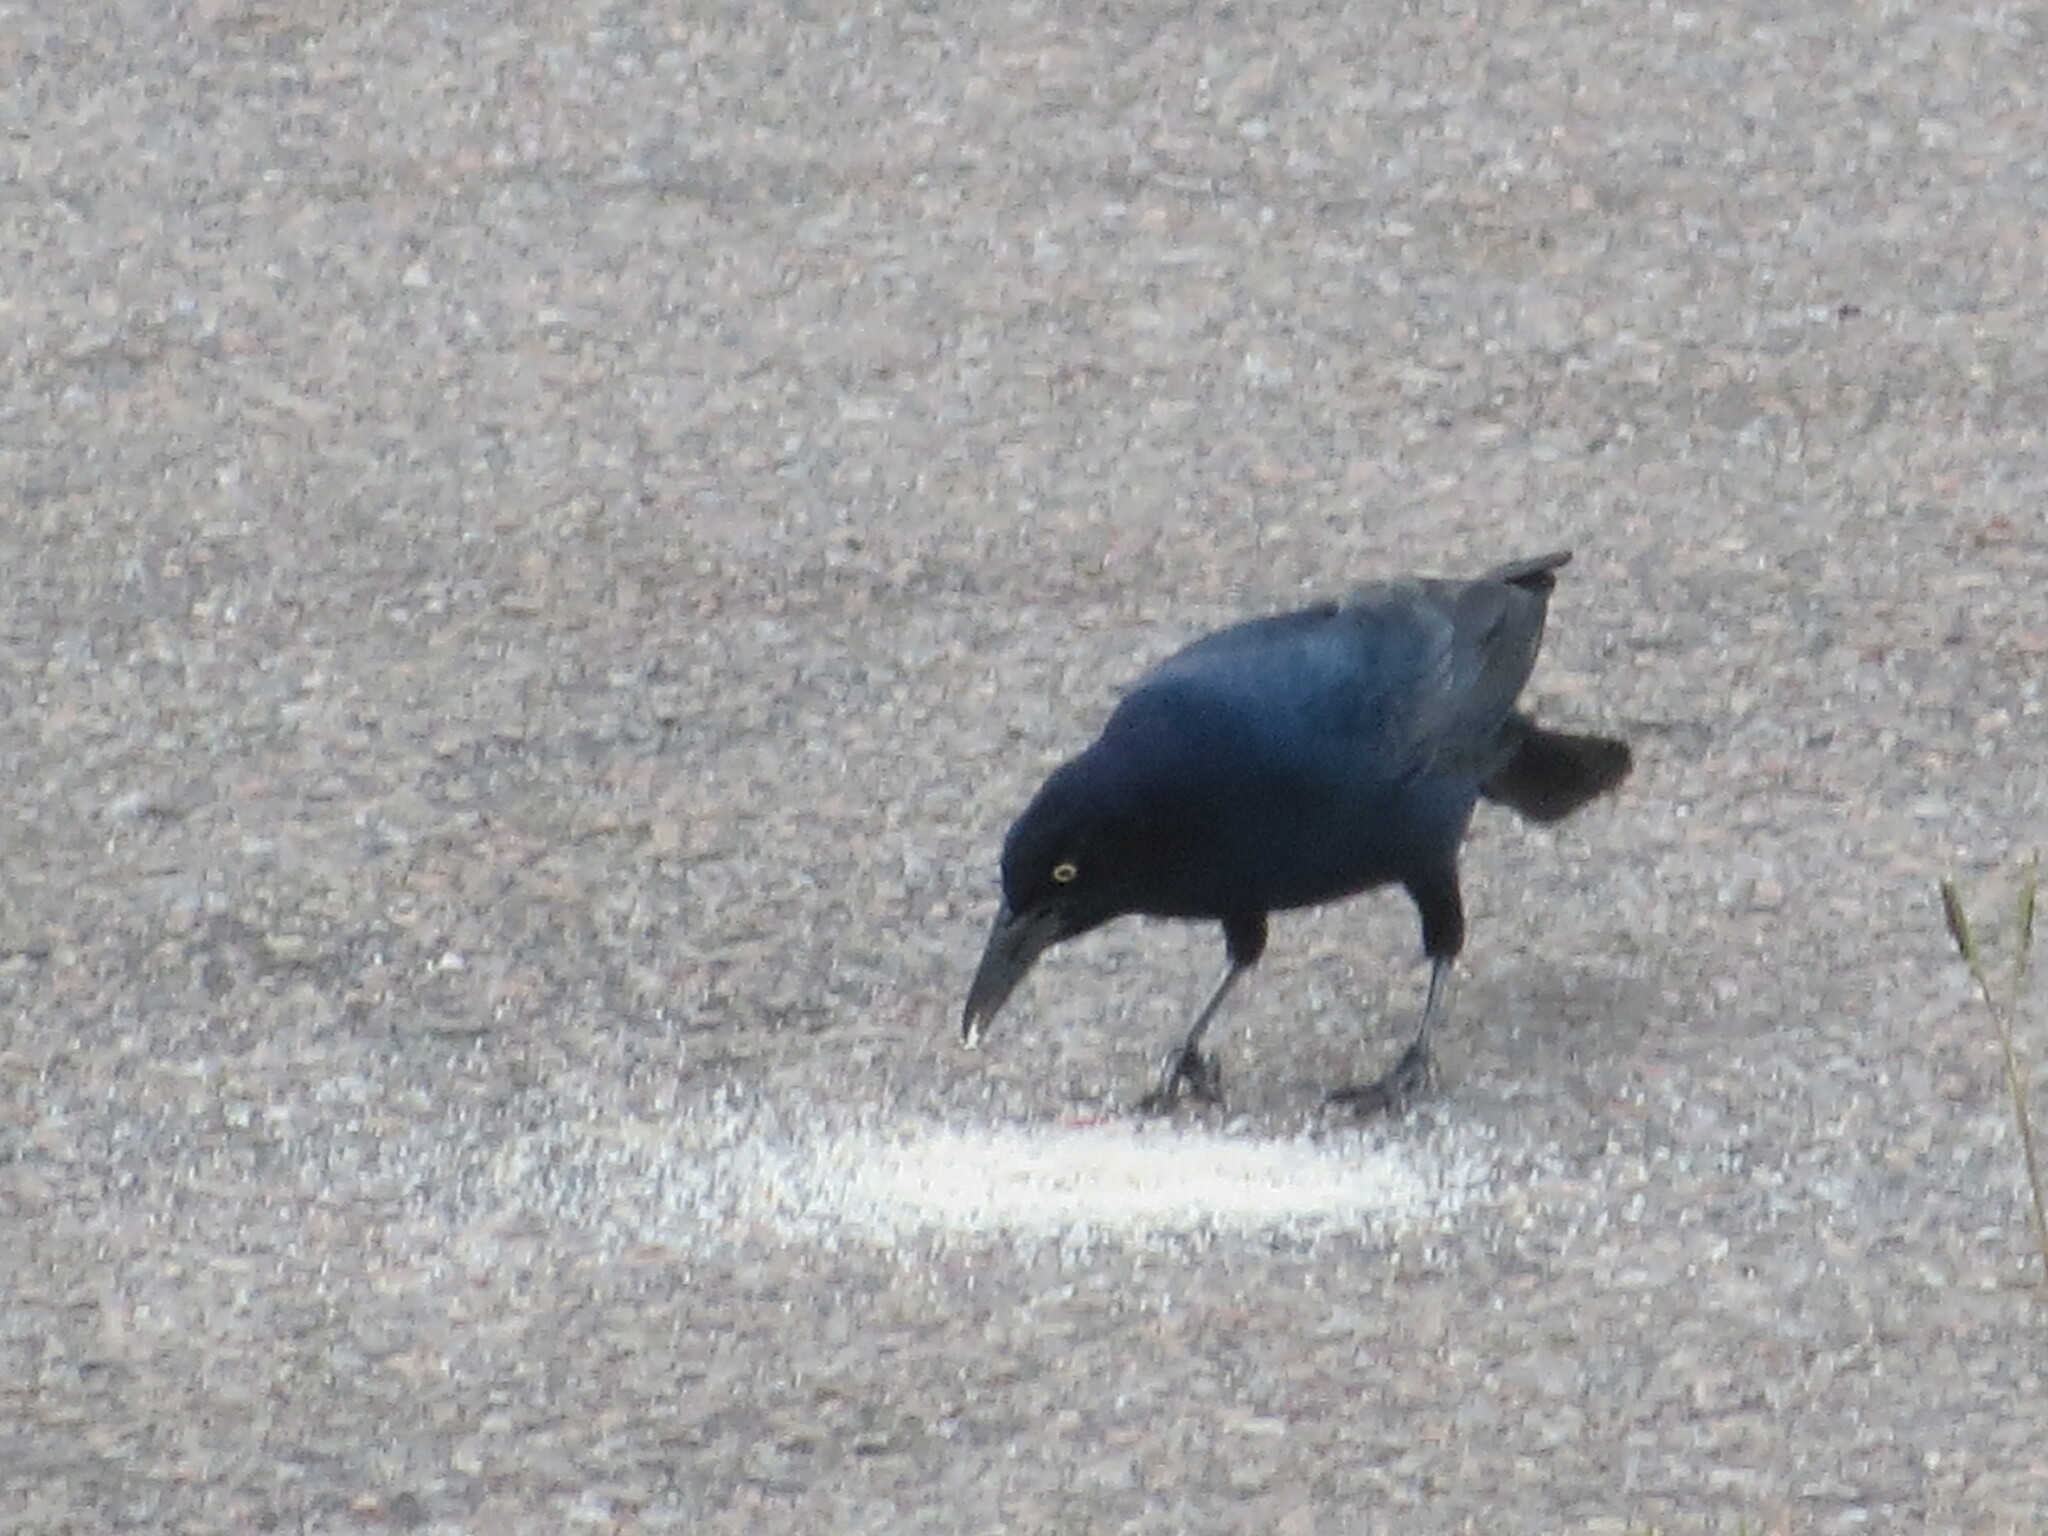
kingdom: Animalia
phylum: Chordata
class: Aves
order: Passeriformes
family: Icteridae
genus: Quiscalus
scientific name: Quiscalus major
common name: Boat-tailed grackle
